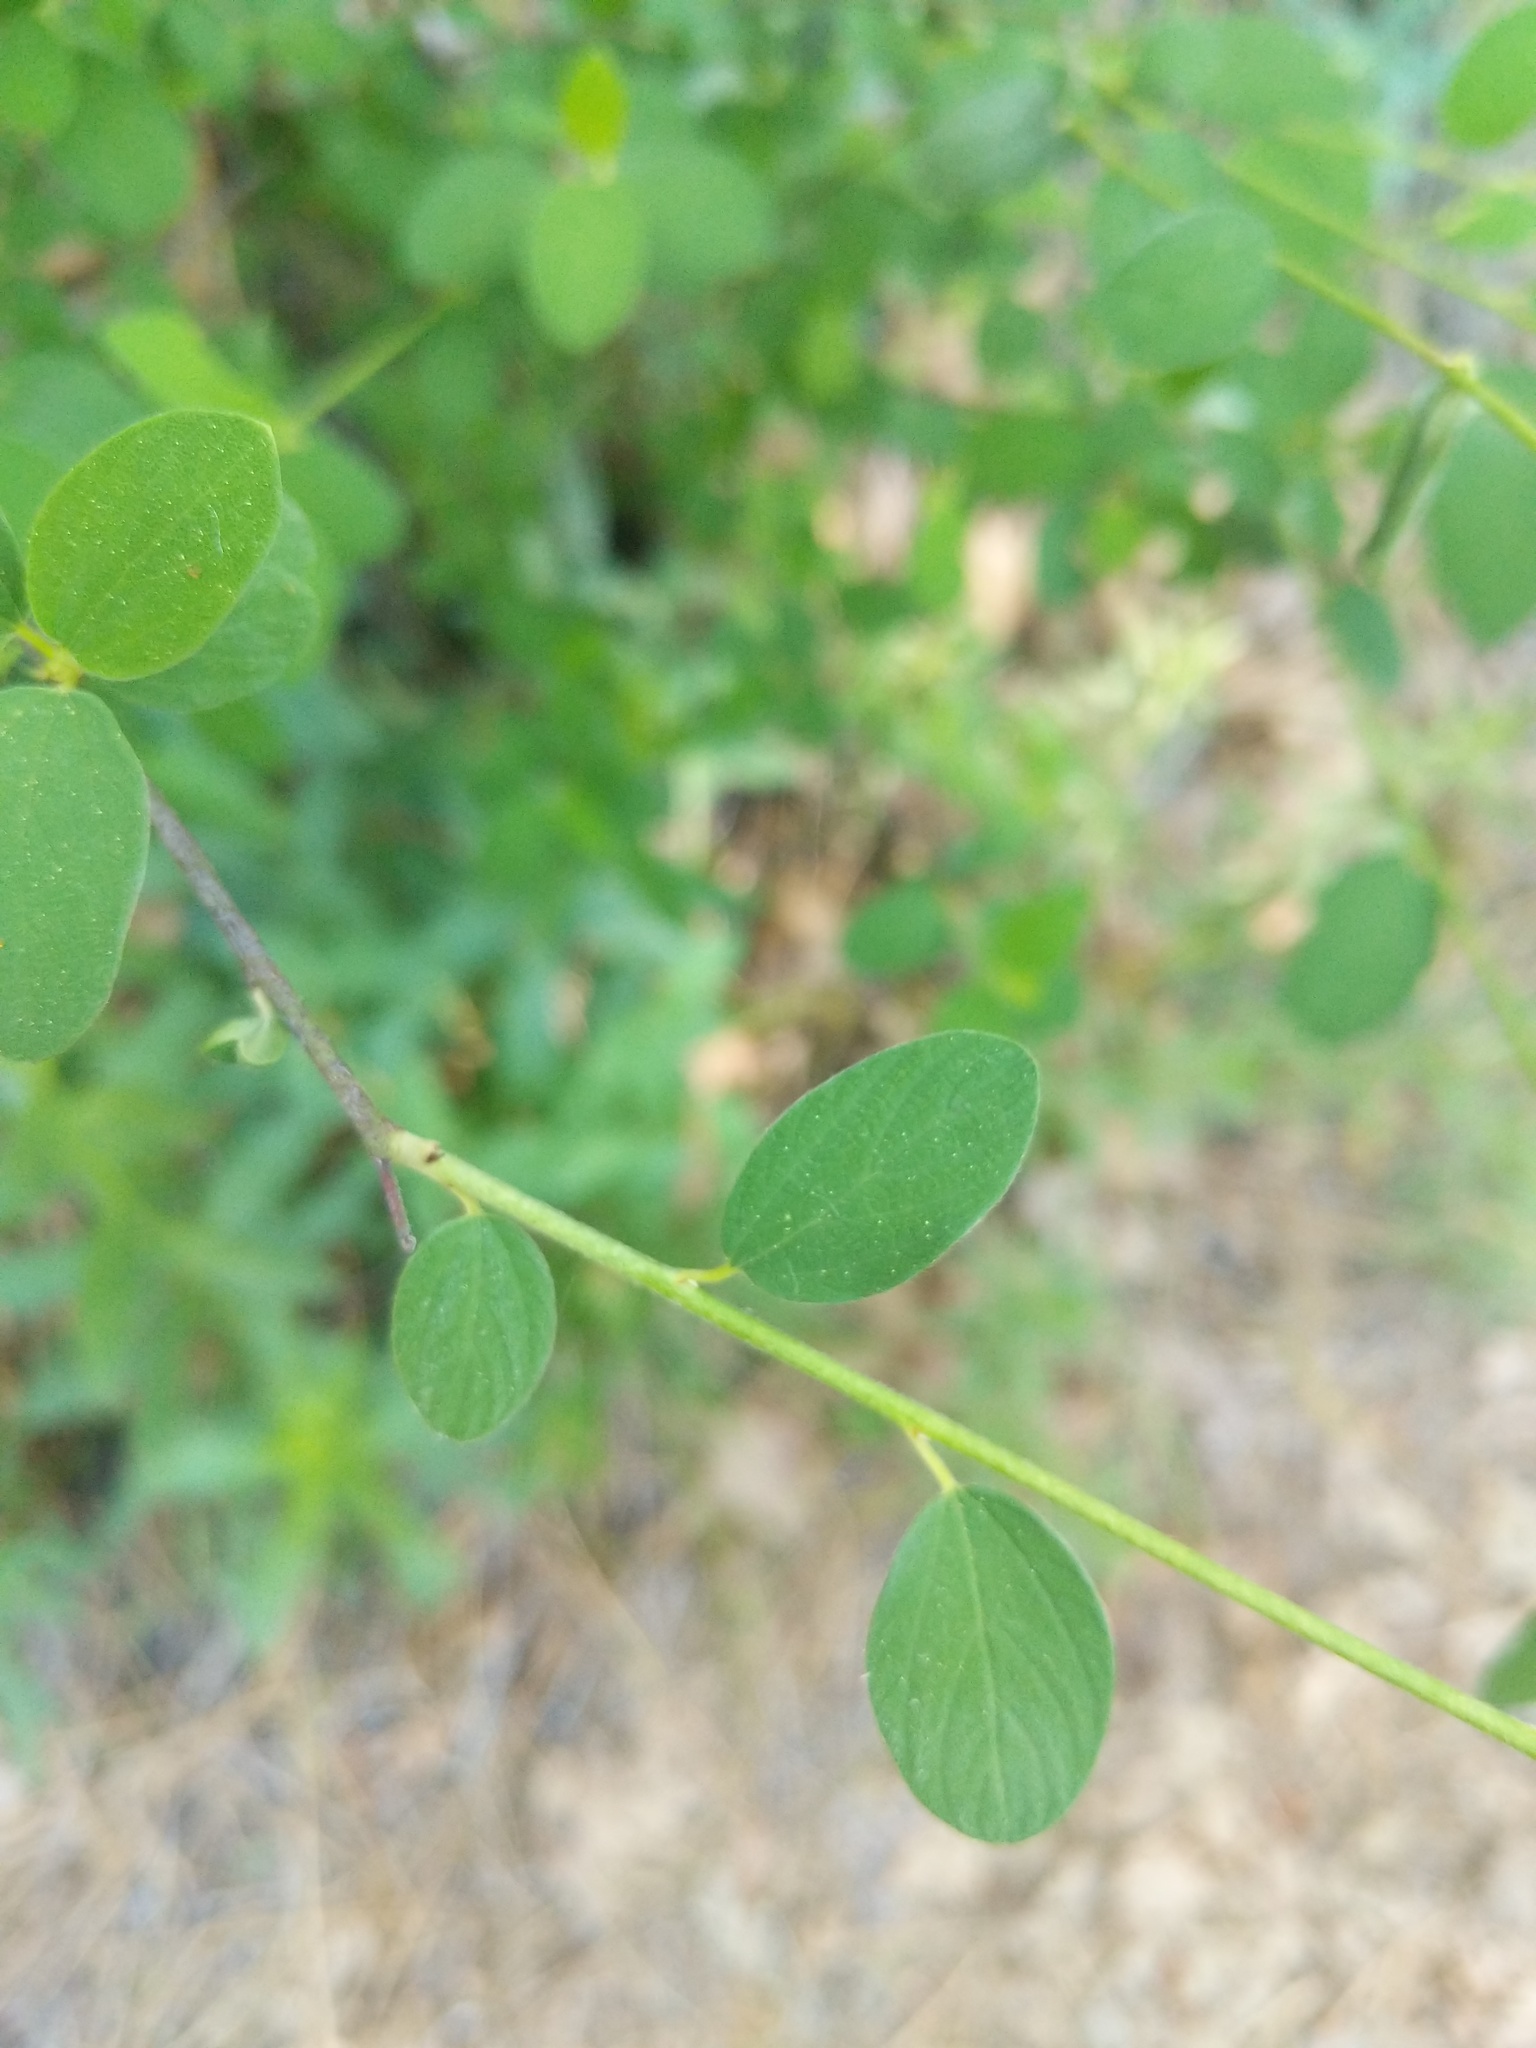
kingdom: Plantae
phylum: Tracheophyta
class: Magnoliopsida
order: Rosales
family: Rhamnaceae
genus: Ceanothus
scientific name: Ceanothus integerrimus
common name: Deerbrush ceanothus
